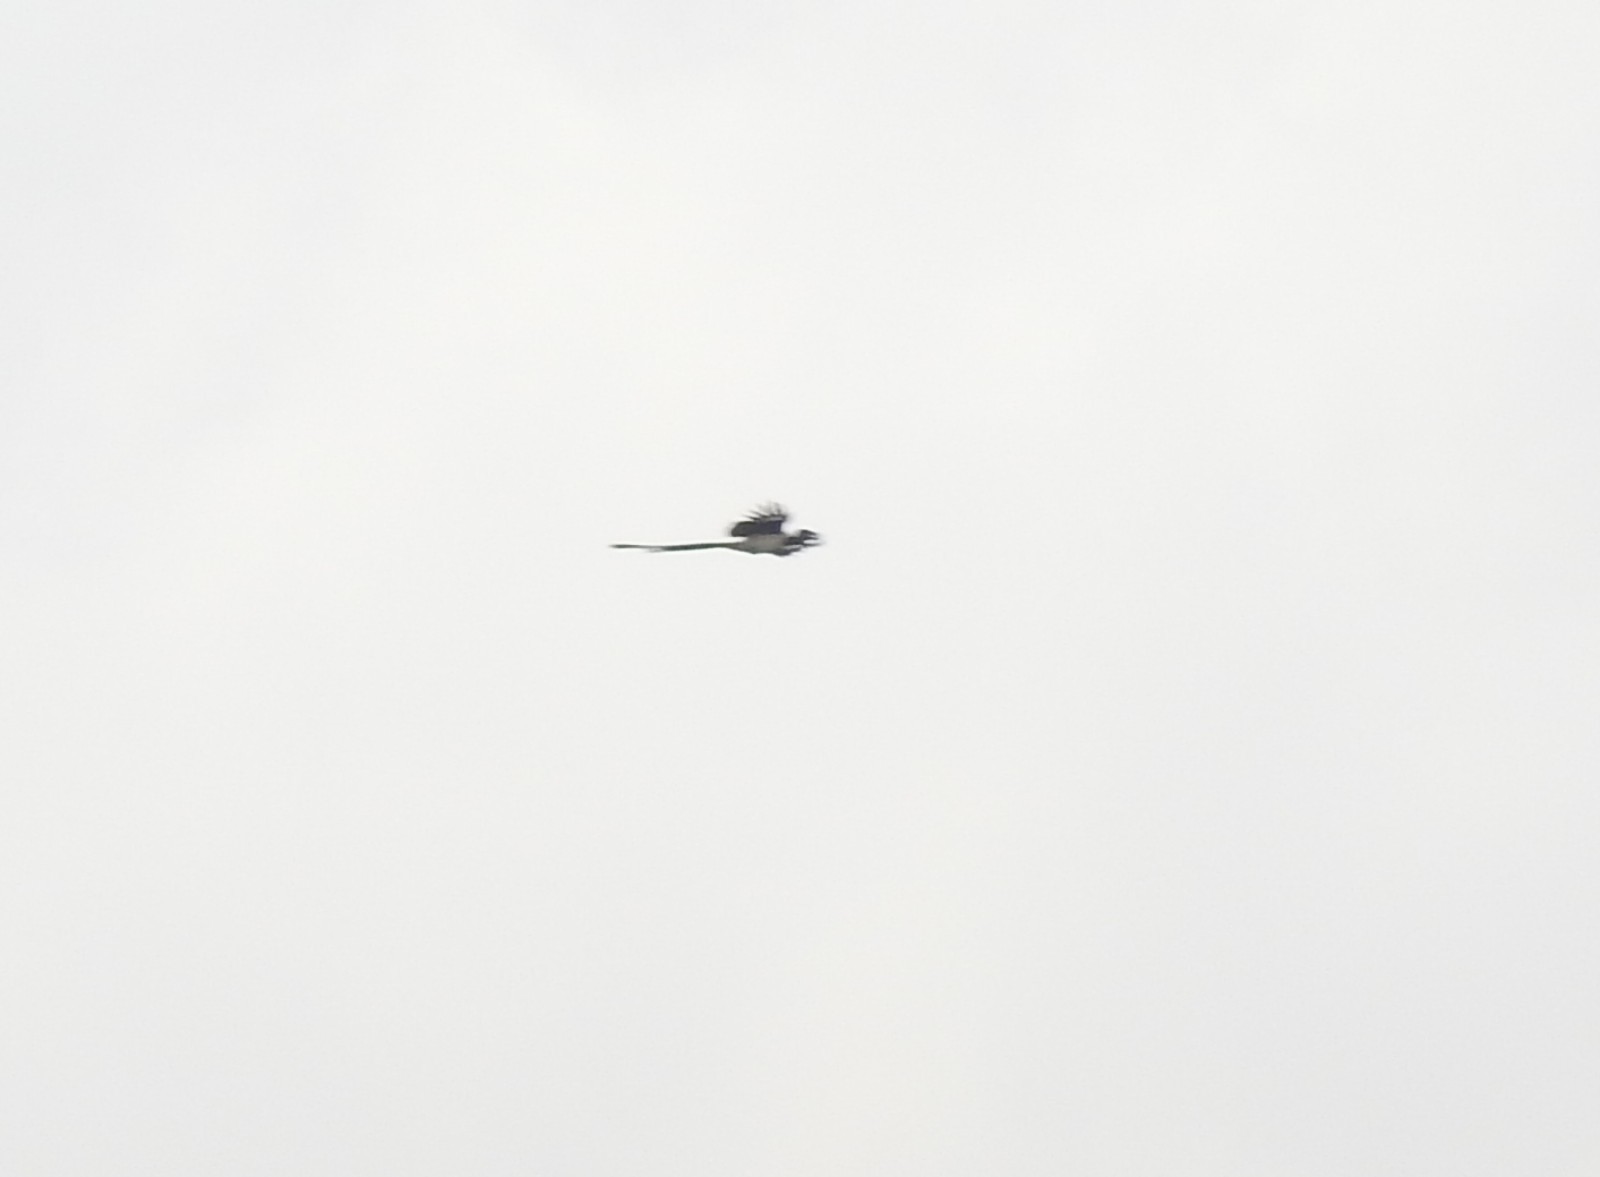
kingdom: Animalia
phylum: Chordata
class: Aves
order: Passeriformes
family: Corvidae
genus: Dendrocitta
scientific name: Dendrocitta leucogastra
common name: White-bellied treepie
